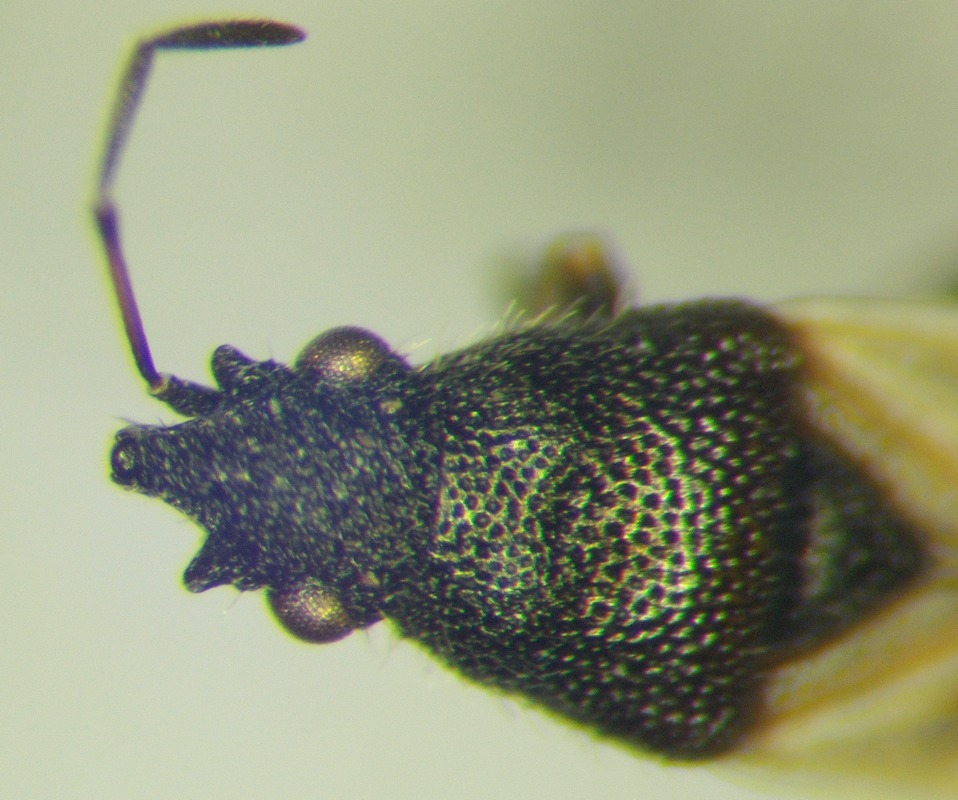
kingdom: Animalia
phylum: Arthropoda
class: Insecta
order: Hemiptera
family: Oxycarenidae
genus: Metopoplax
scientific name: Metopoplax origani
